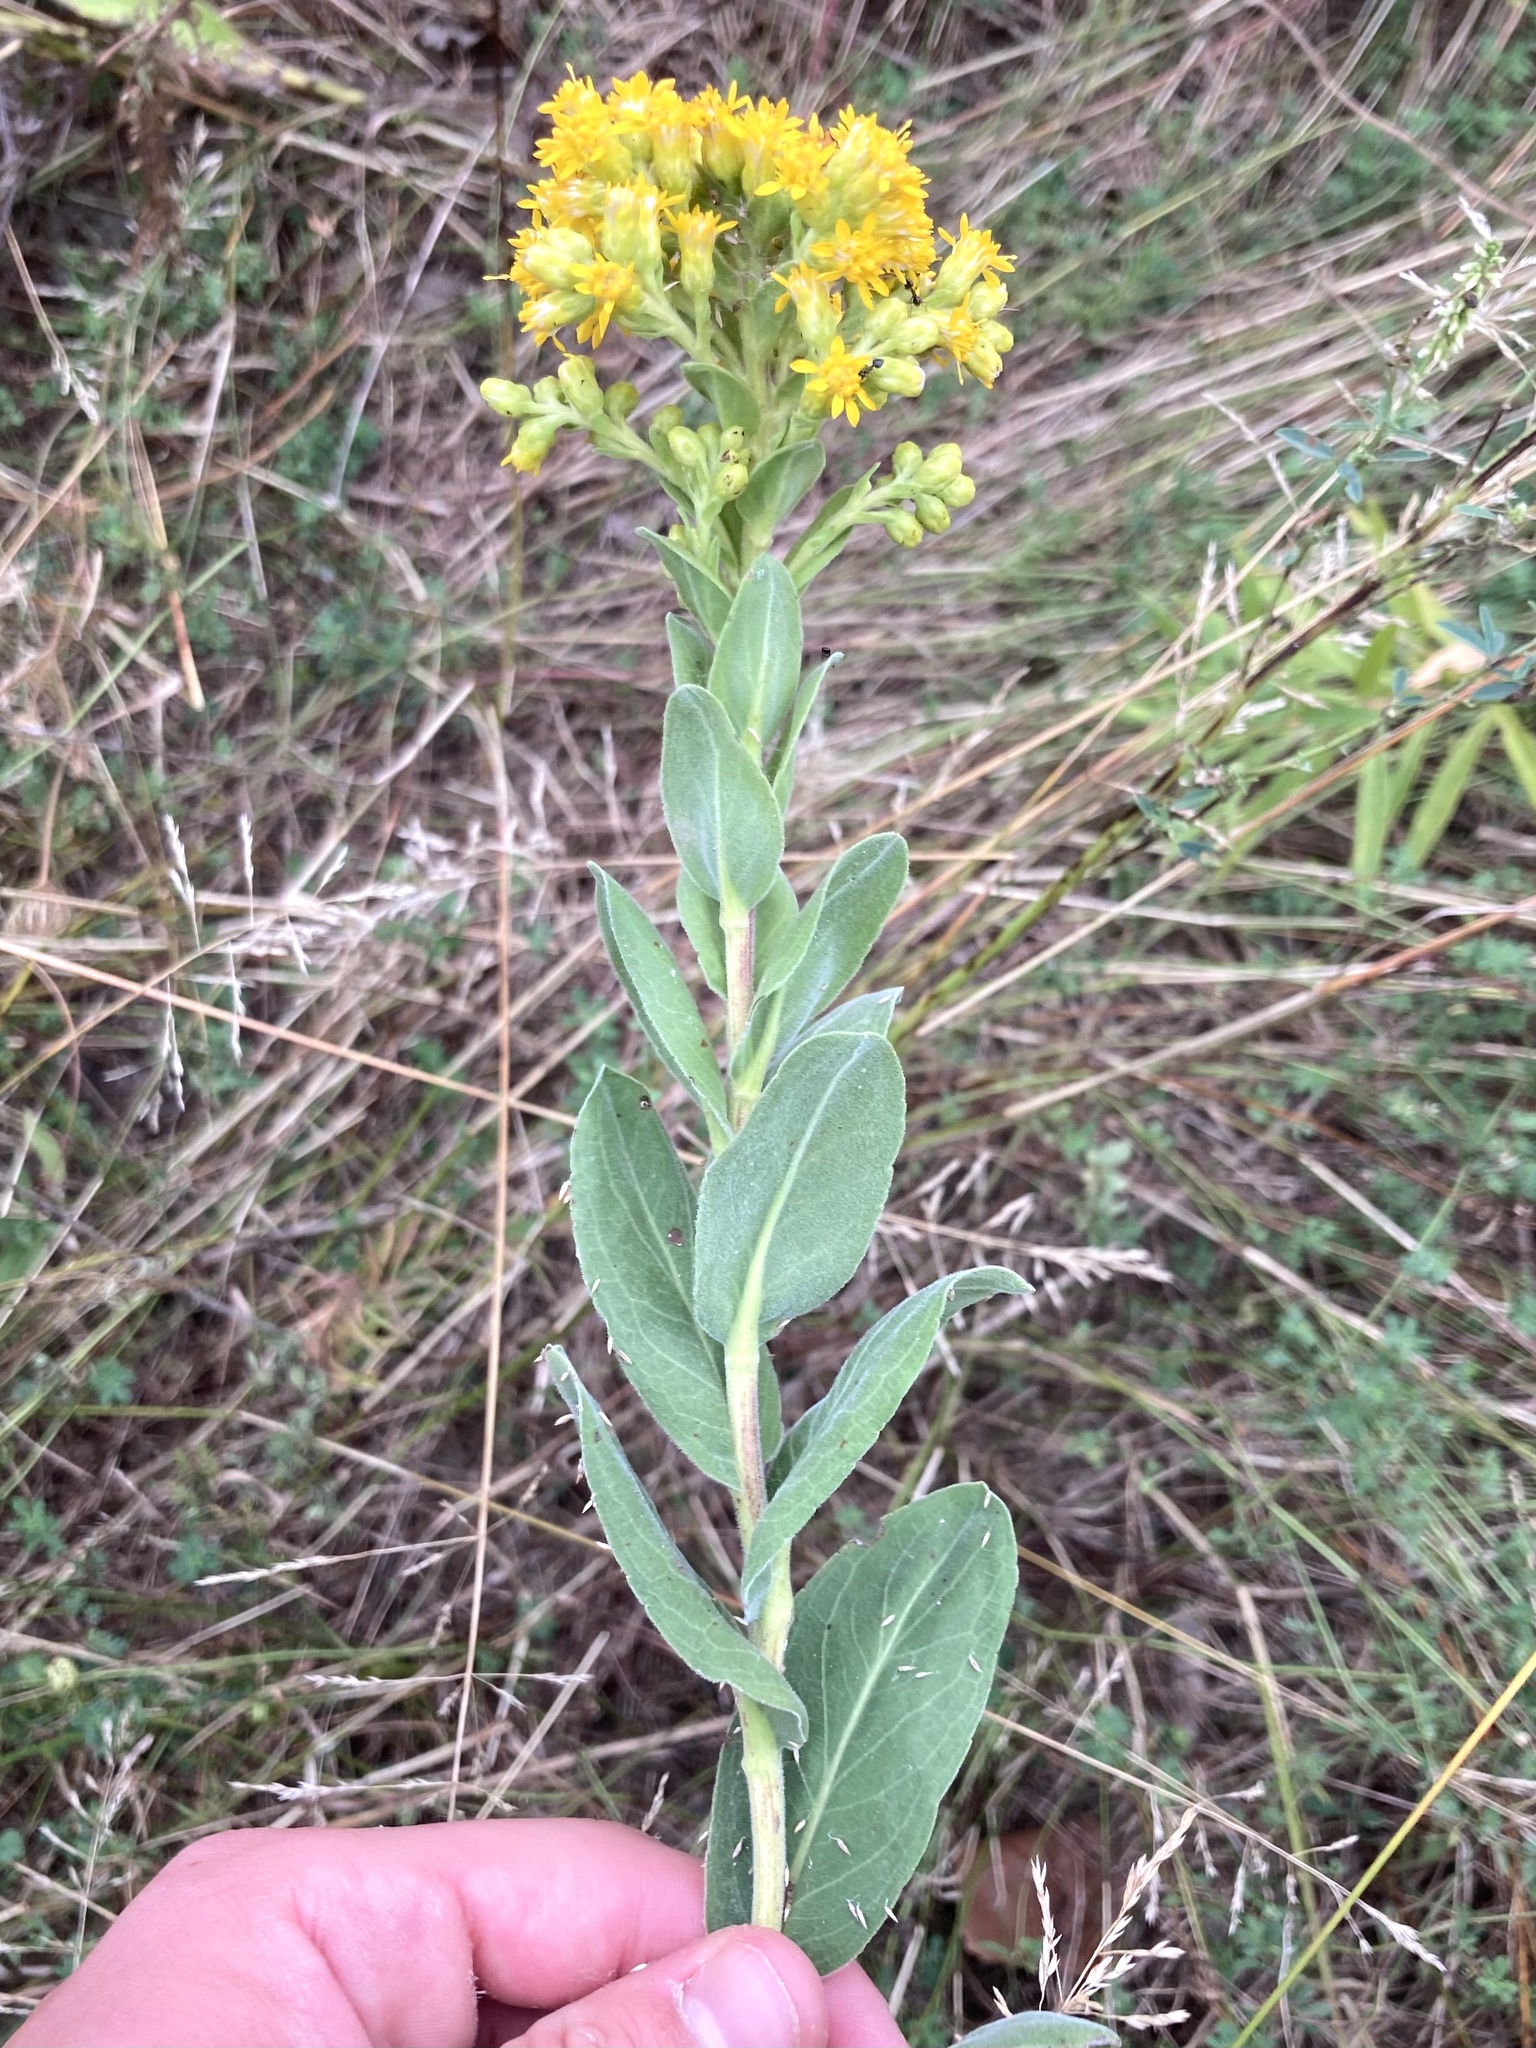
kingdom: Plantae
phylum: Tracheophyta
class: Magnoliopsida
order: Asterales
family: Asteraceae
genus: Solidago
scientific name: Solidago rigida
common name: Rigid goldenrod
